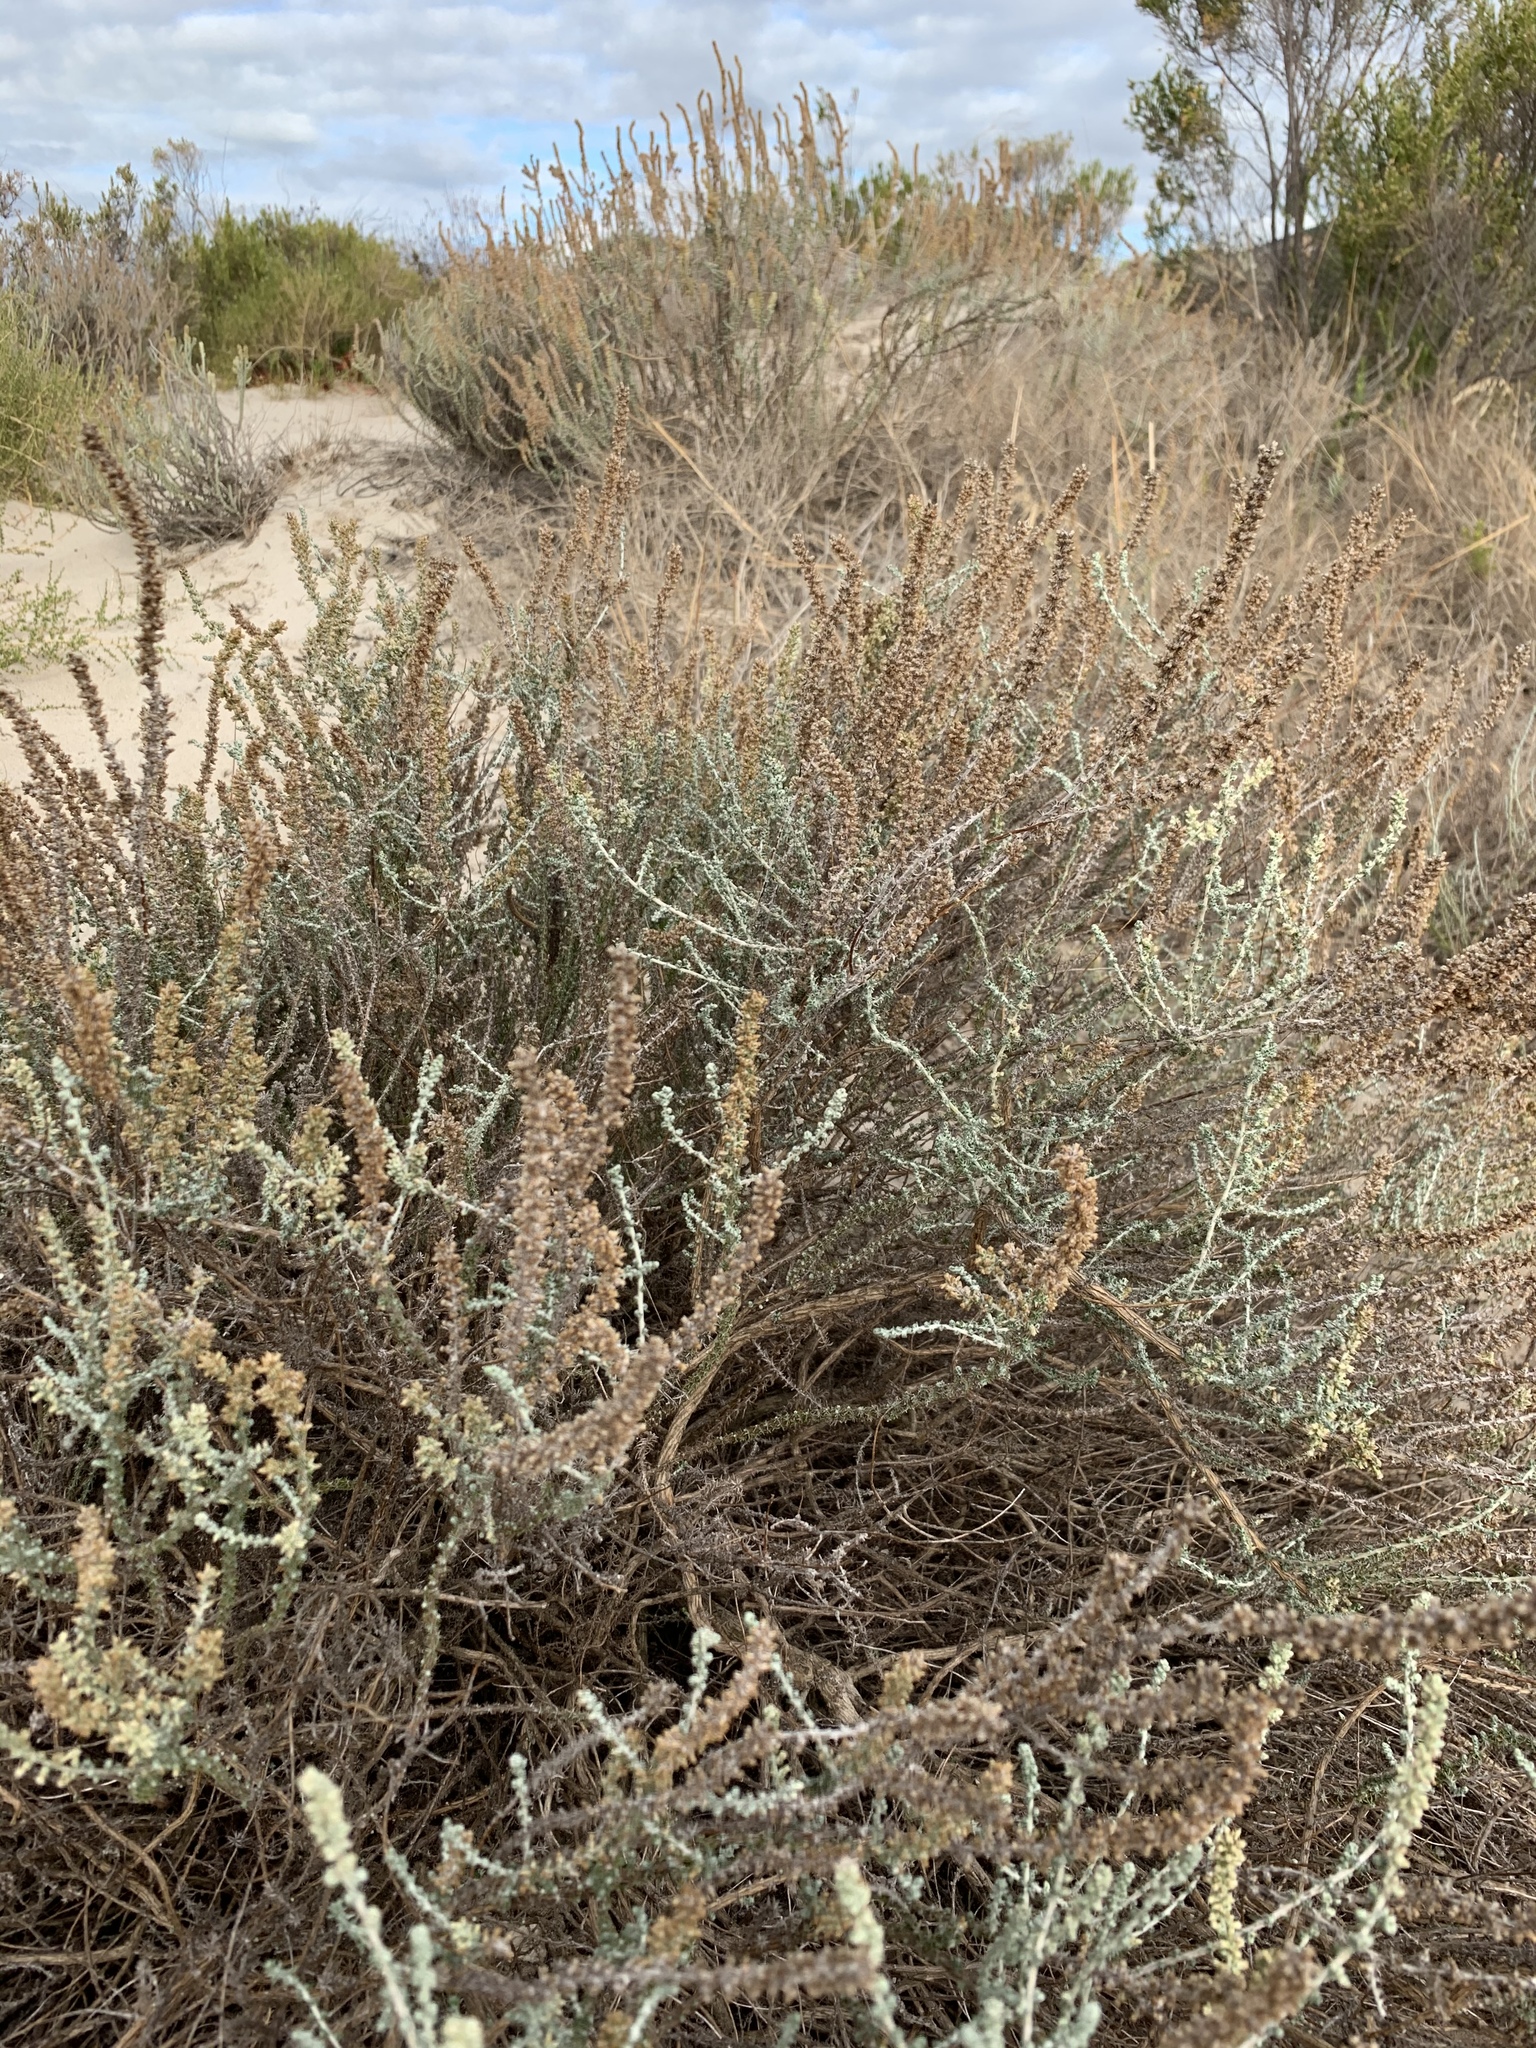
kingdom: Plantae
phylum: Tracheophyta
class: Magnoliopsida
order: Asterales
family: Asteraceae
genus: Seriphium
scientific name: Seriphium plumosum
